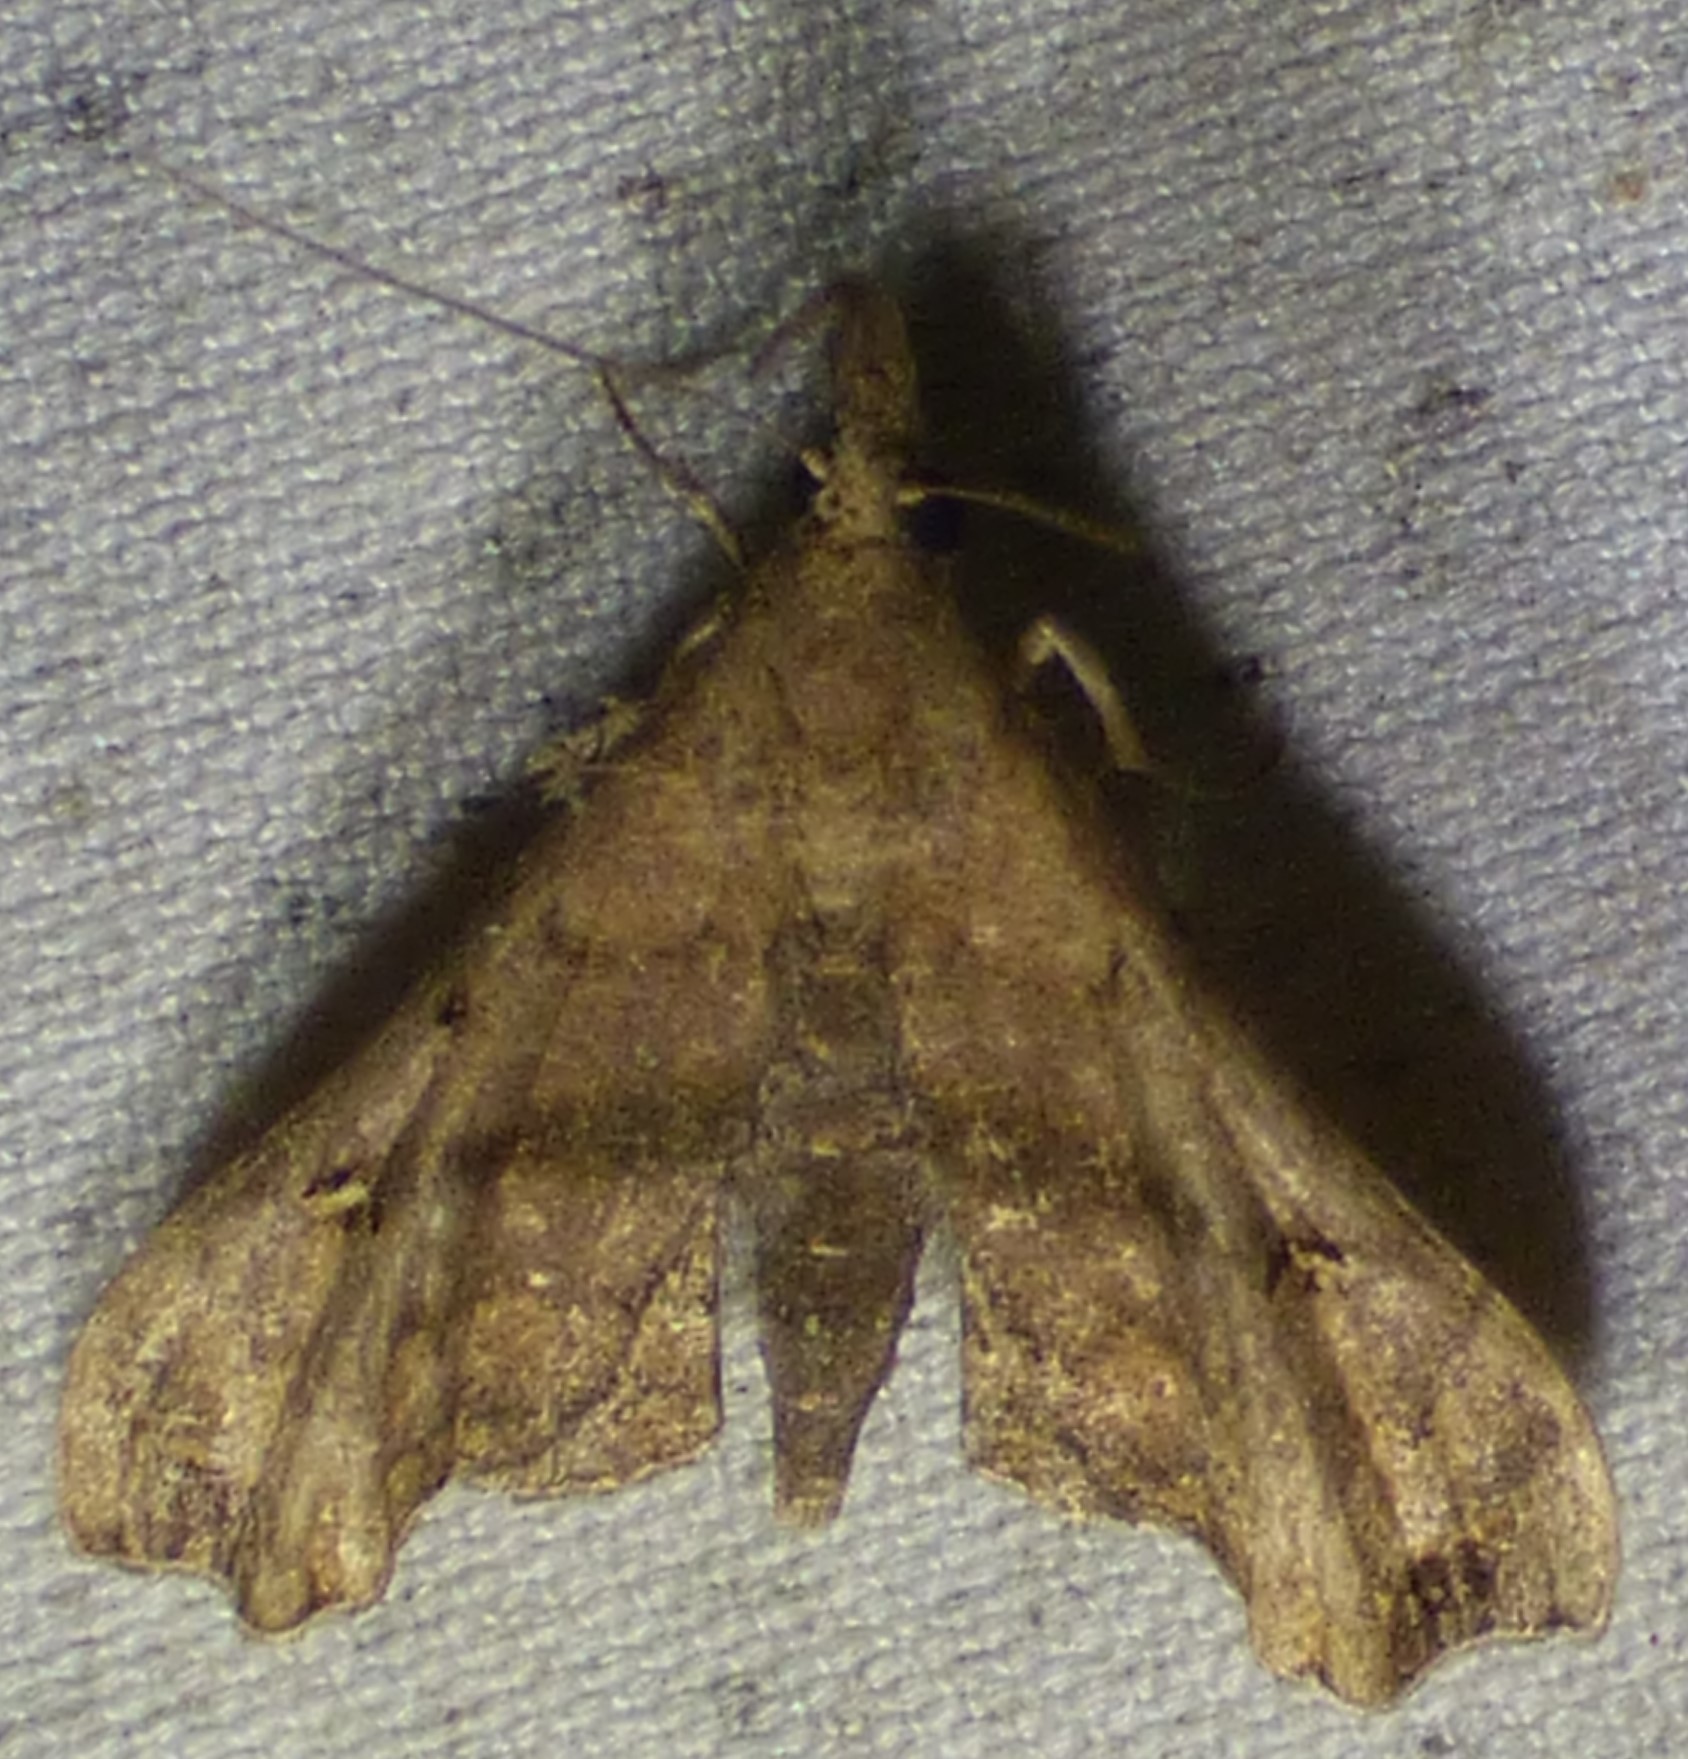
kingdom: Animalia
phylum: Arthropoda
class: Insecta
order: Lepidoptera
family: Erebidae
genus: Palthis
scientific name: Palthis asopialis
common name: Faint-spotted palthis moth
